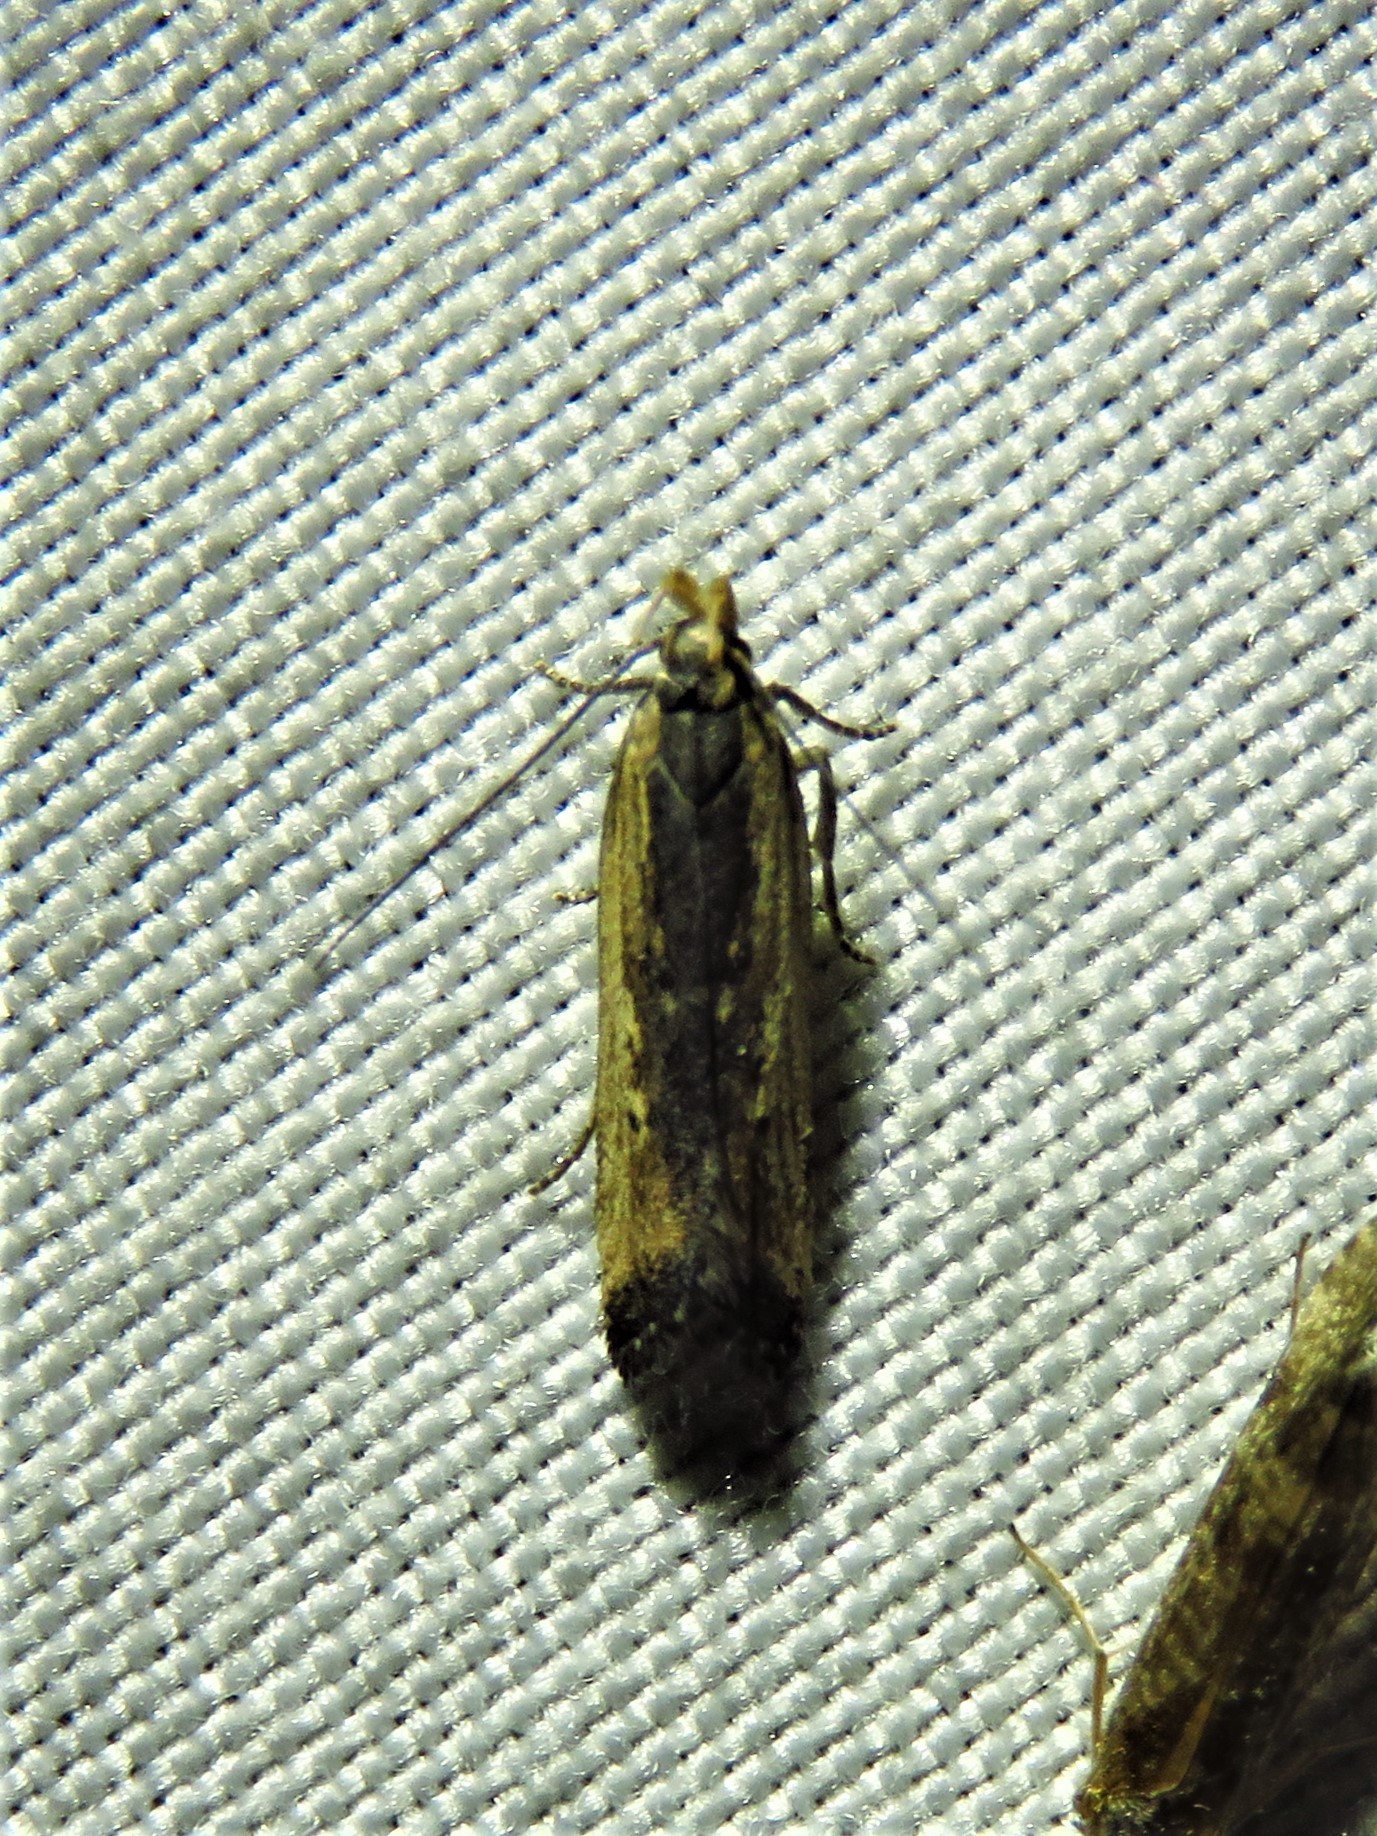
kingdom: Animalia
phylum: Arthropoda
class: Insecta
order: Lepidoptera
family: Gelechiidae
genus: Dichomeris
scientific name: Dichomeris simpliciella
